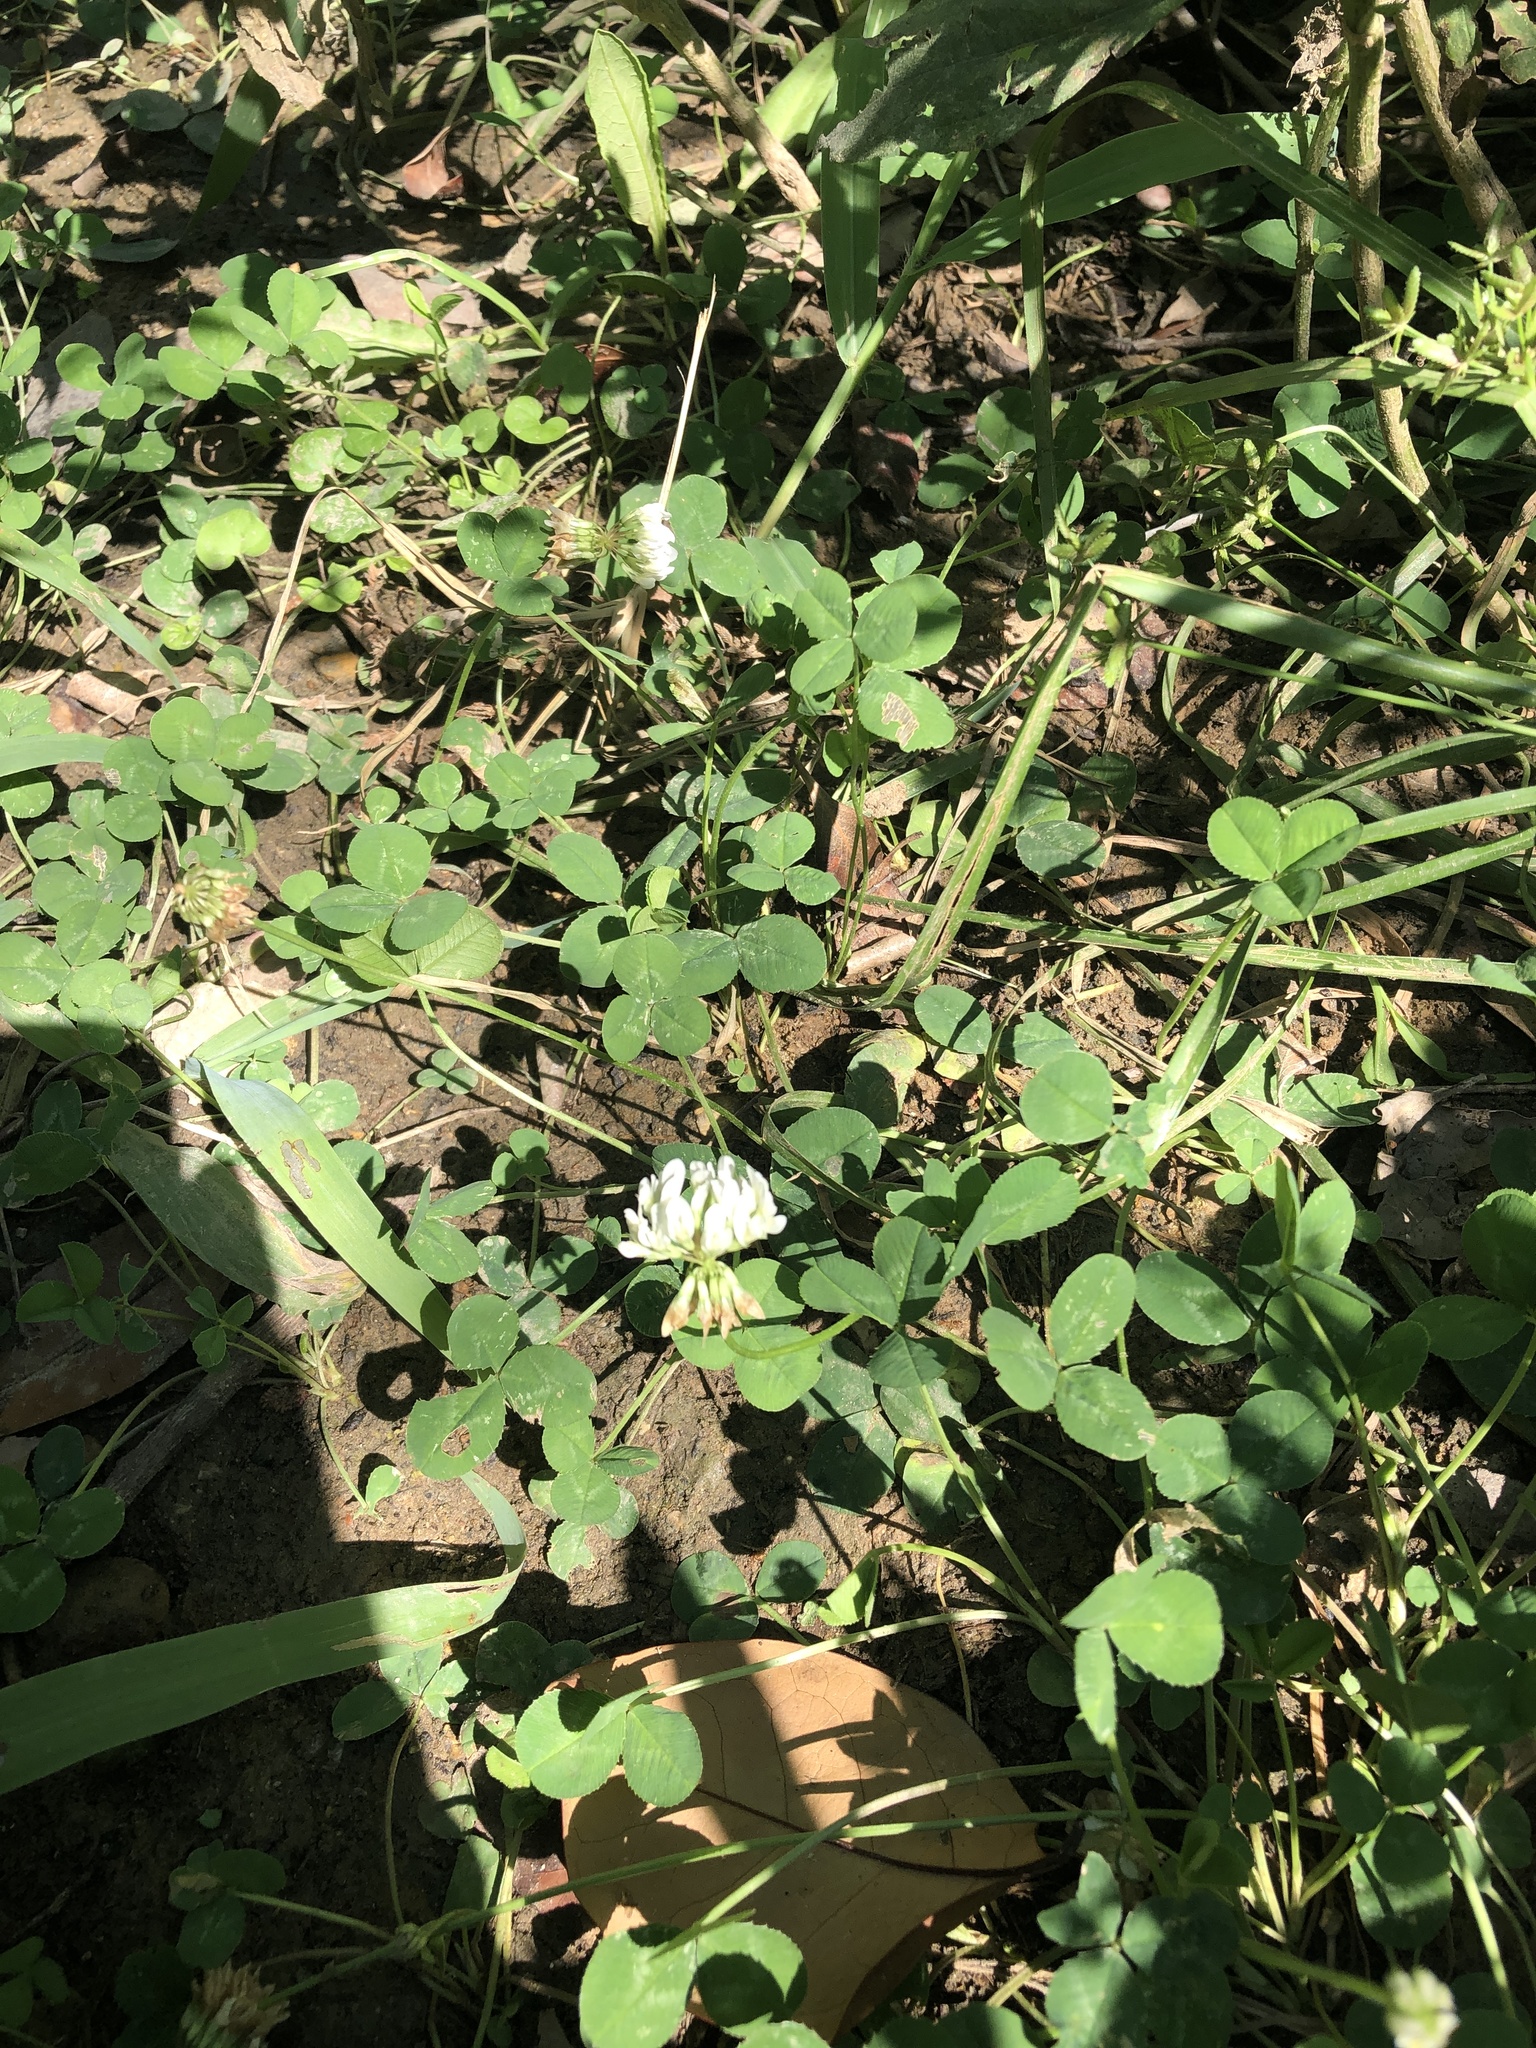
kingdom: Plantae
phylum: Tracheophyta
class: Magnoliopsida
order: Fabales
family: Fabaceae
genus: Trifolium
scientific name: Trifolium repens
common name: White clover
